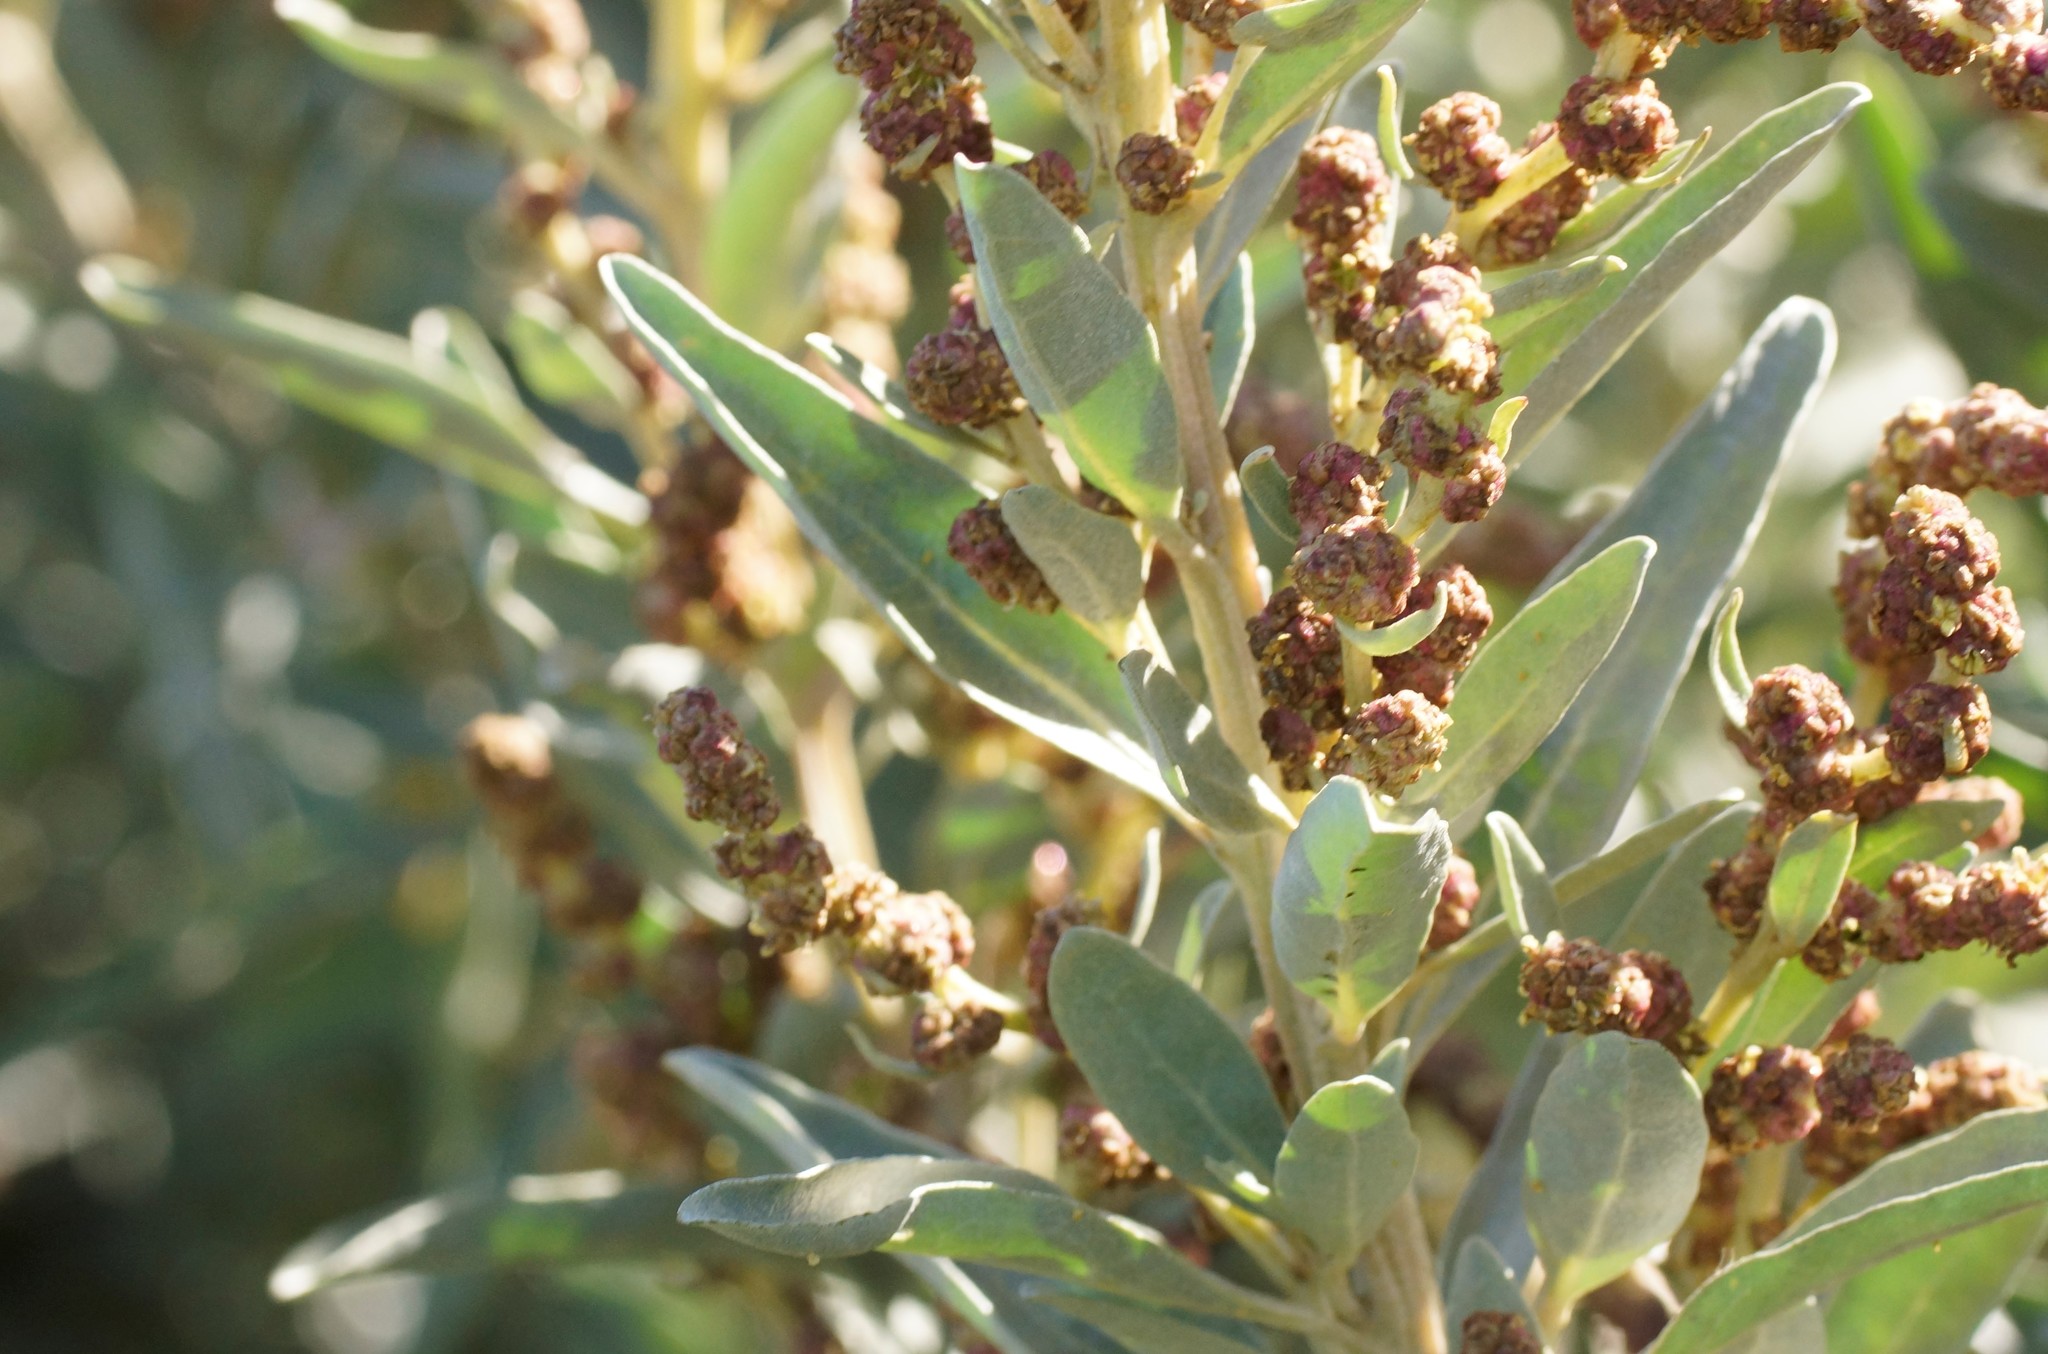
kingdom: Plantae
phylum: Tracheophyta
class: Magnoliopsida
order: Caryophyllales
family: Amaranthaceae
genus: Atriplex
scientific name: Atriplex cinerea
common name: Grey saltbush
